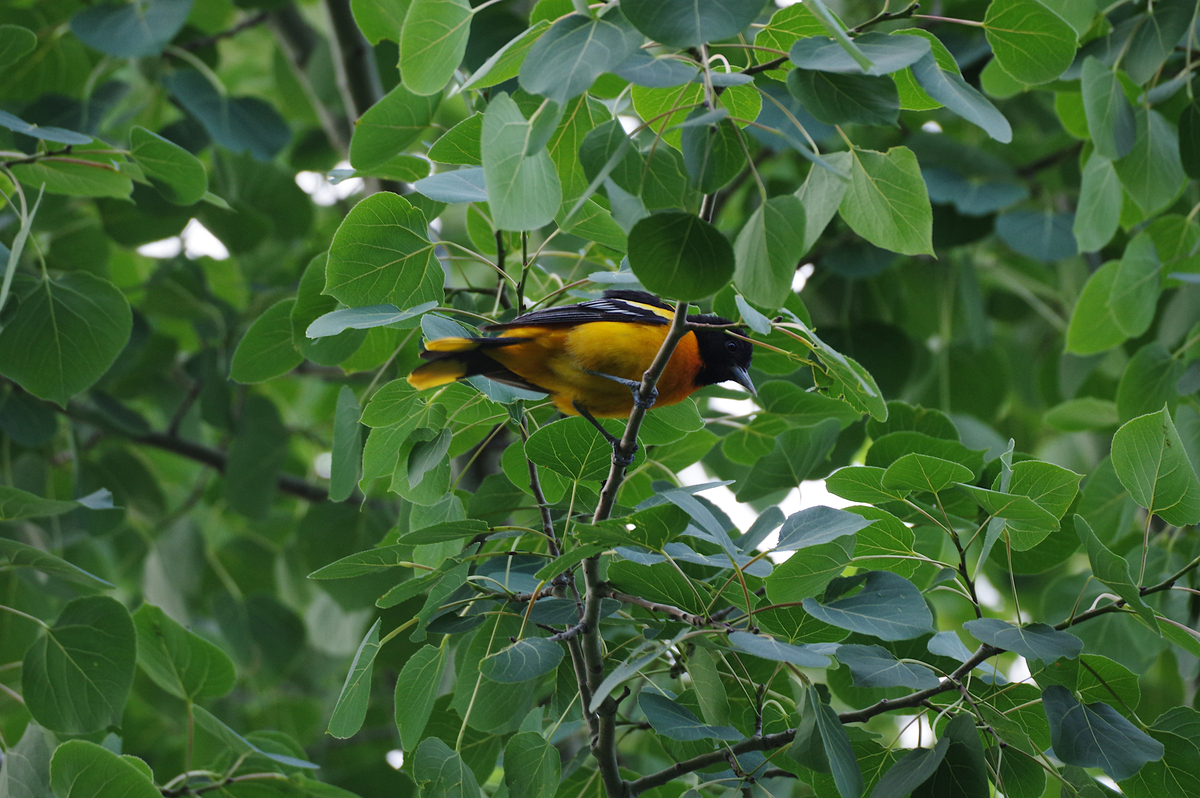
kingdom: Animalia
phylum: Chordata
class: Aves
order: Passeriformes
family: Icteridae
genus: Icterus
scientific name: Icterus galbula
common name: Baltimore oriole
